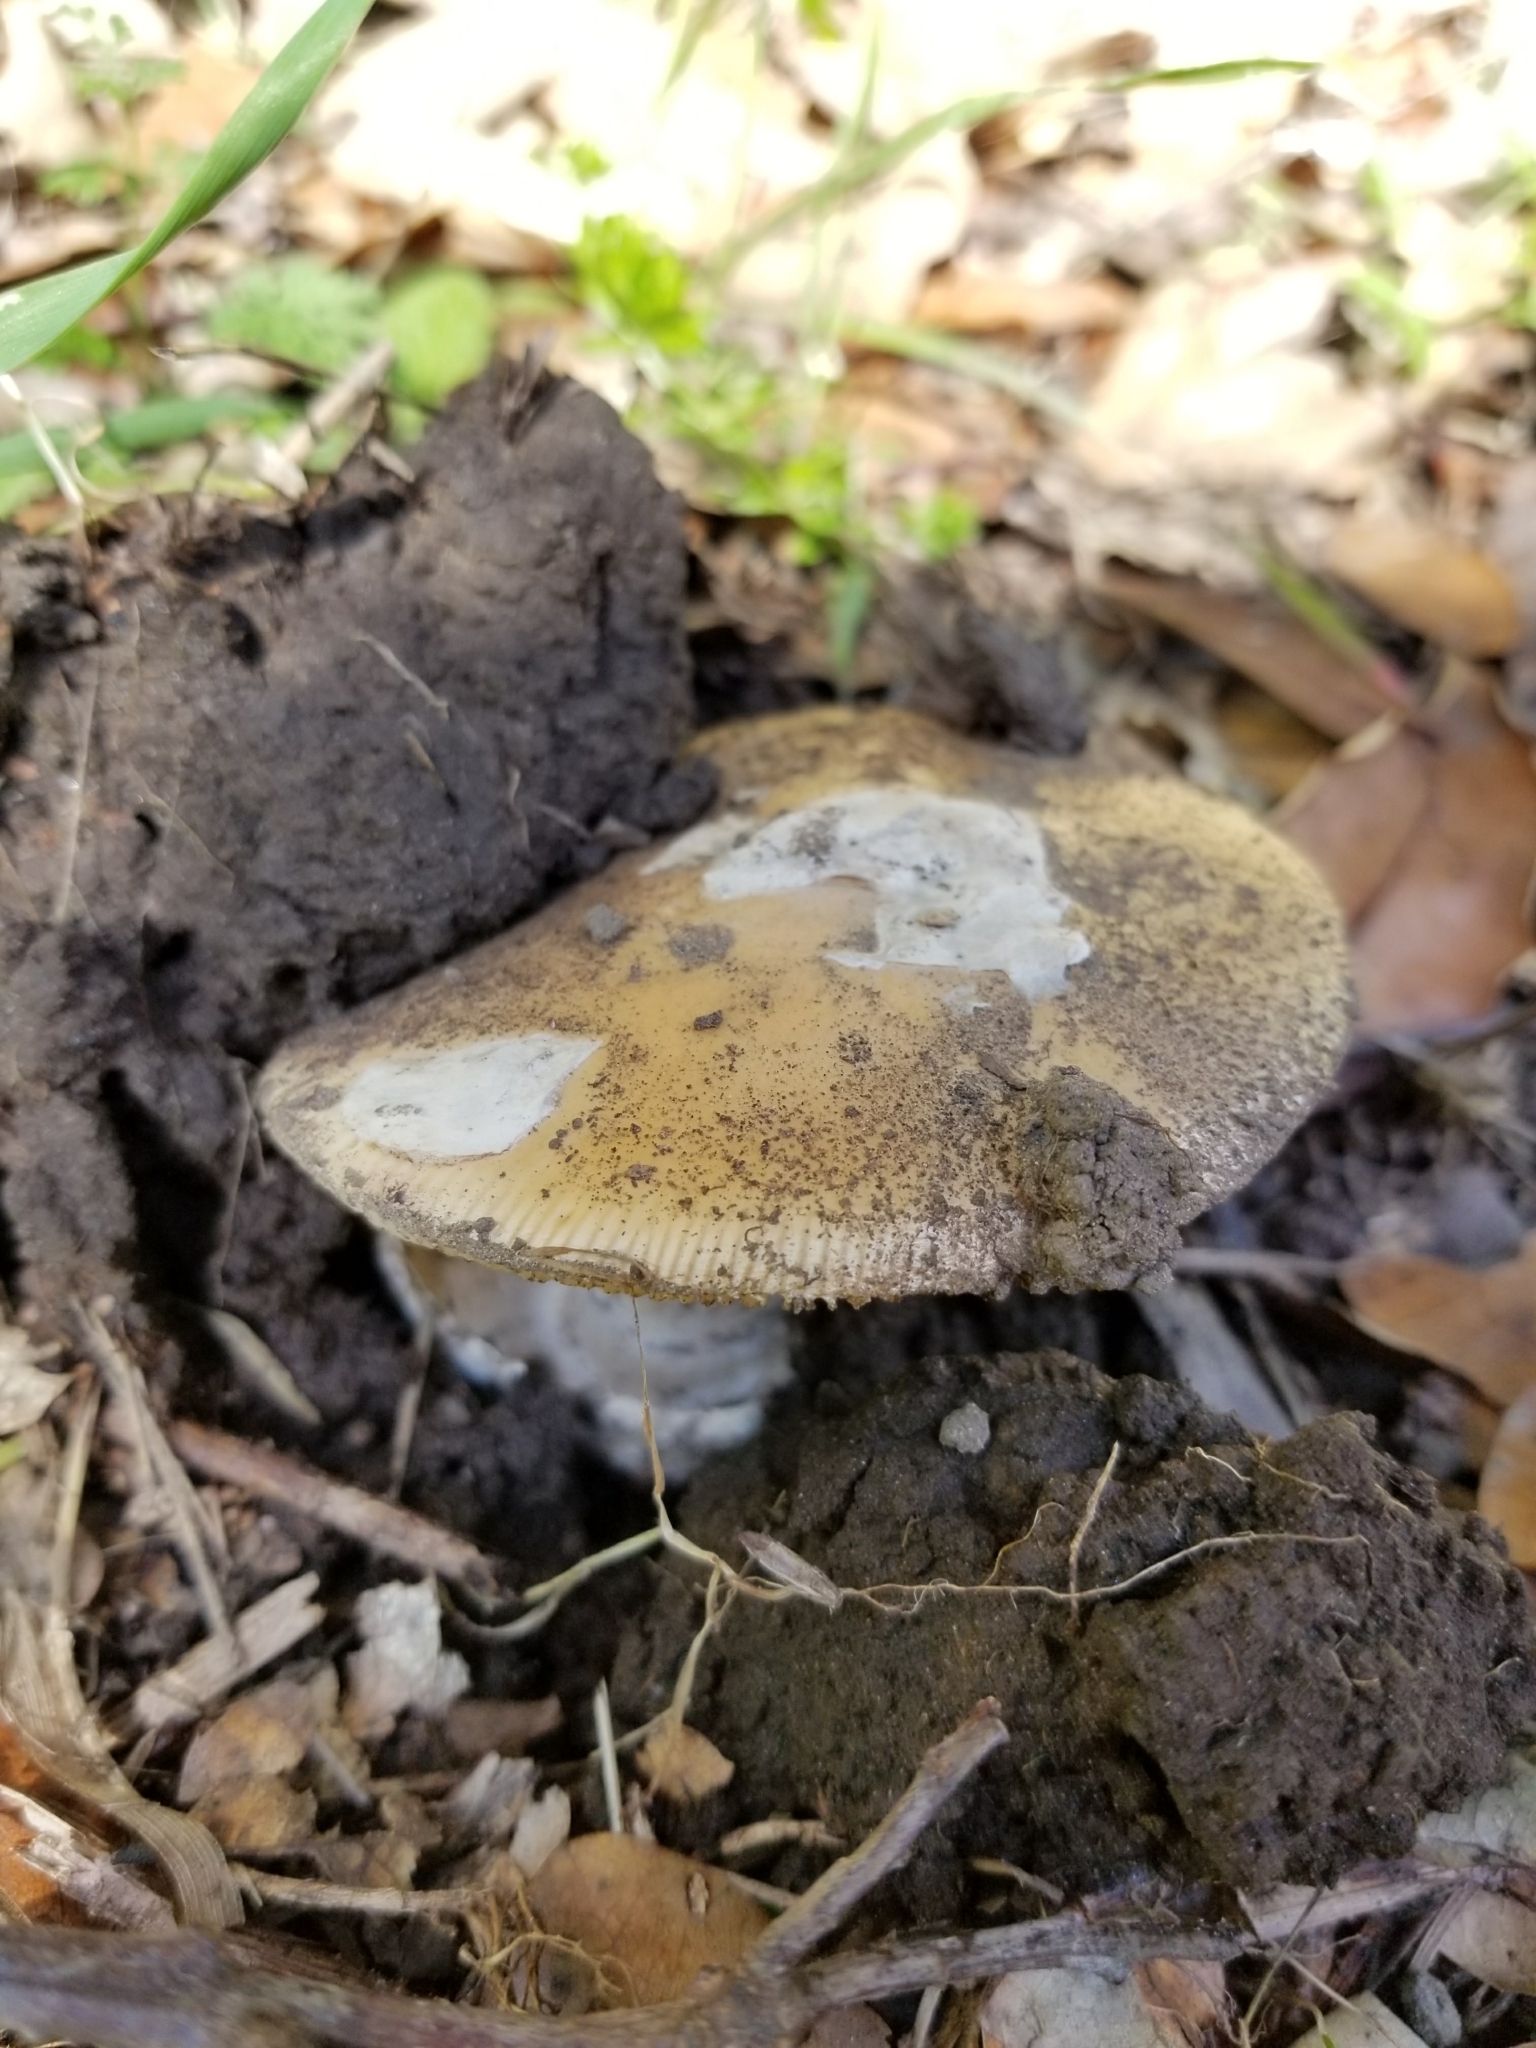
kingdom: Fungi
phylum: Basidiomycota
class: Agaricomycetes
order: Agaricales
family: Amanitaceae
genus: Amanita
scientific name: Amanita velosa
